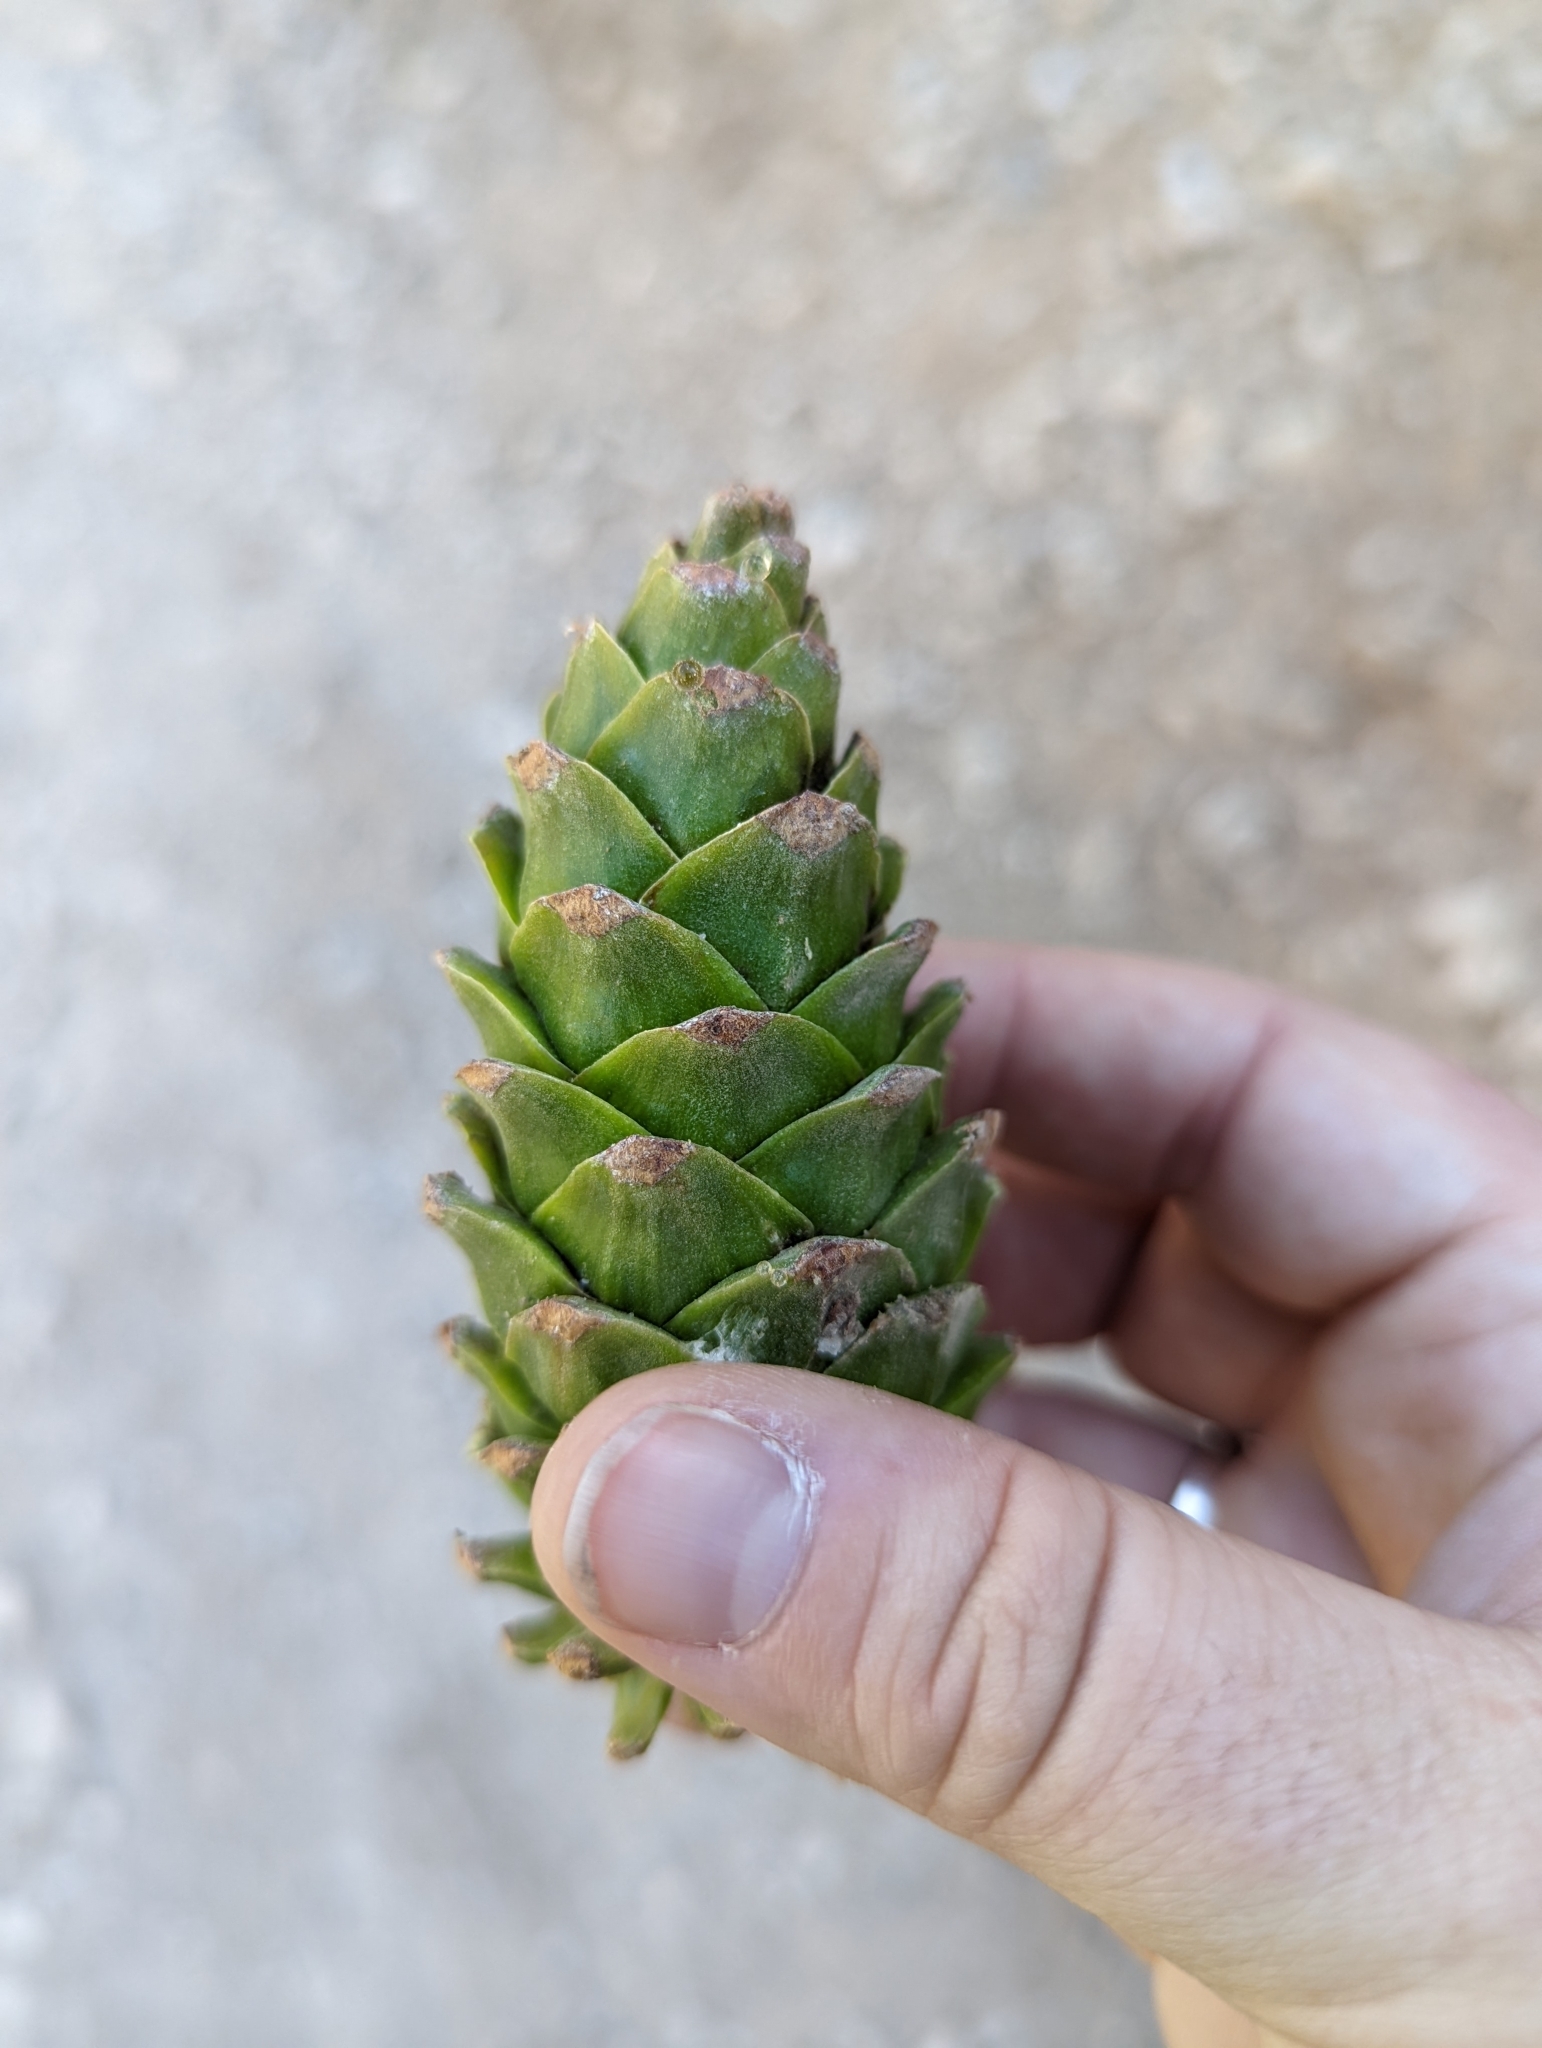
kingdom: Plantae
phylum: Tracheophyta
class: Pinopsida
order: Pinales
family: Pinaceae
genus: Pinus
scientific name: Pinus flexilis
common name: Limber pine
